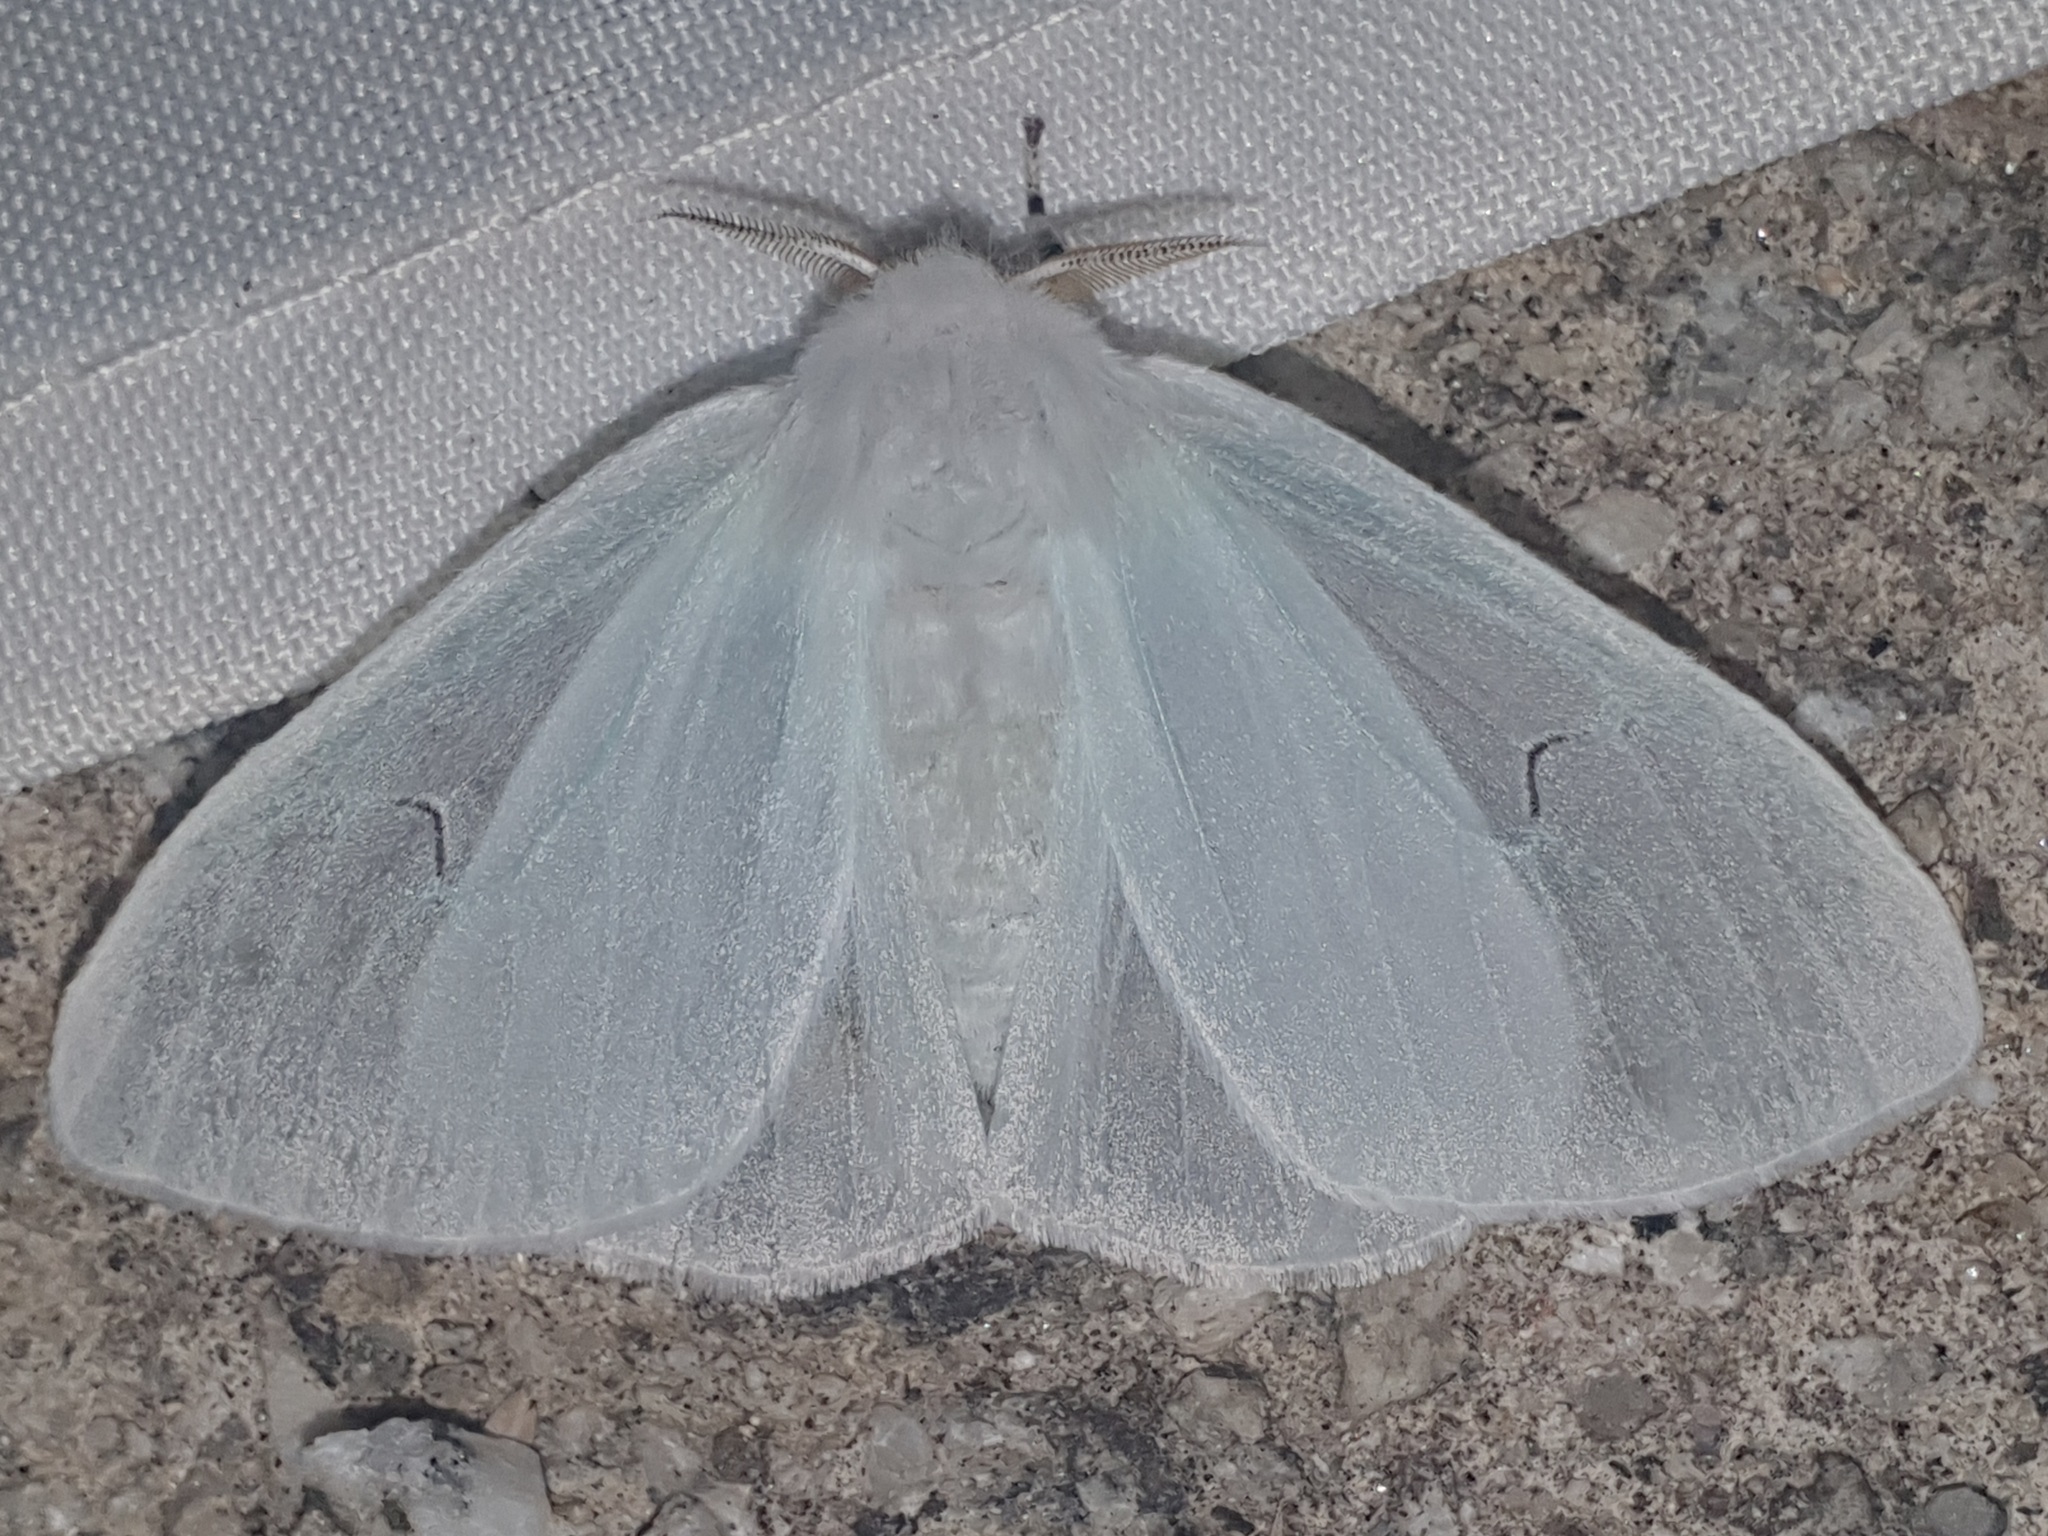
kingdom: Animalia
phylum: Arthropoda
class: Insecta
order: Lepidoptera
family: Erebidae
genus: Arctornis
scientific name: Arctornis l-nigrum
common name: Black v moth
